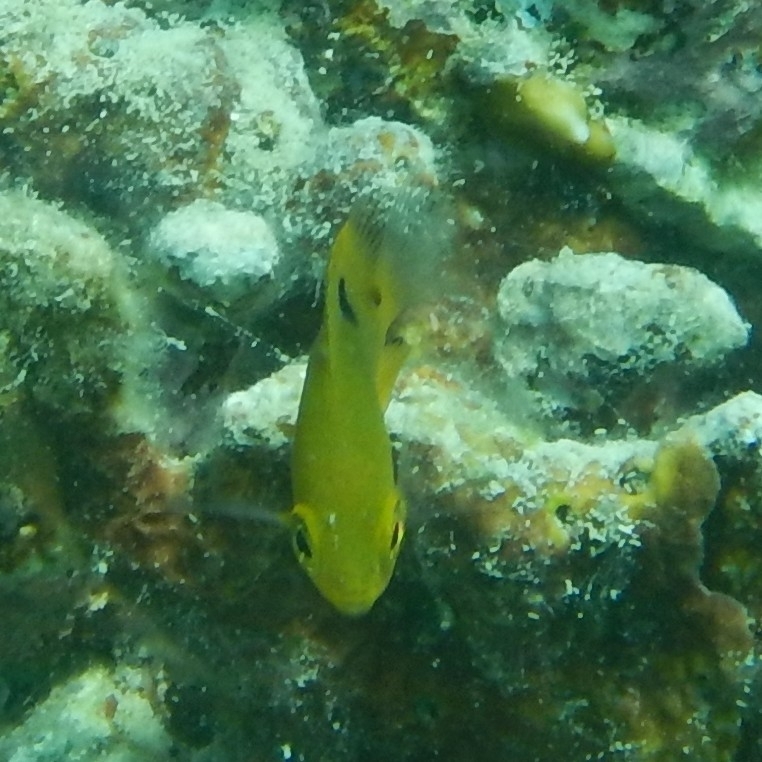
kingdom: Animalia
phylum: Chordata
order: Perciformes
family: Pomacentridae
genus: Stegastes
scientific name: Stegastes planifrons
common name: Threespot damselfish
